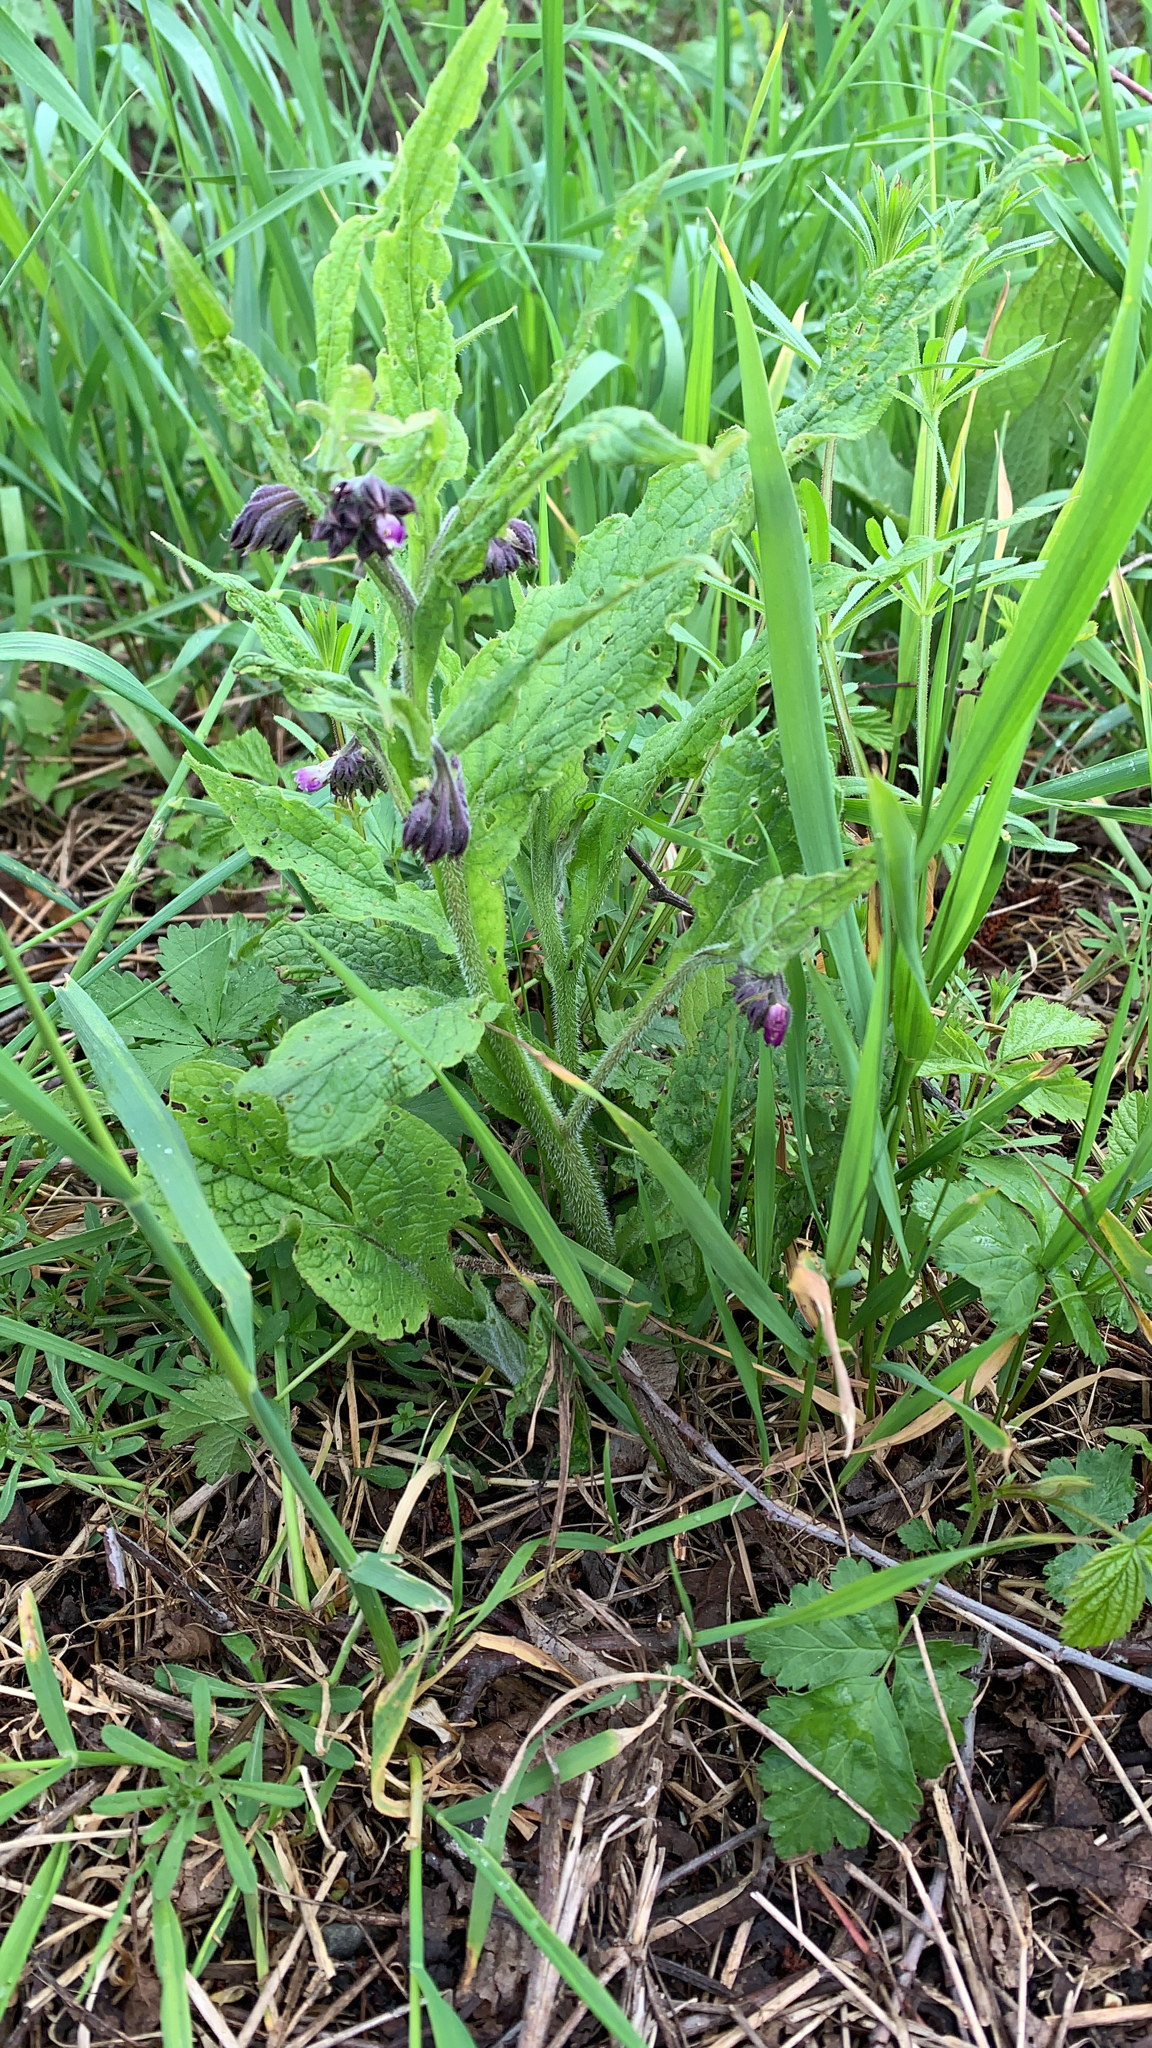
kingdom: Plantae
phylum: Tracheophyta
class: Magnoliopsida
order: Boraginales
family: Boraginaceae
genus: Symphytum
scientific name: Symphytum officinale
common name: Common comfrey
